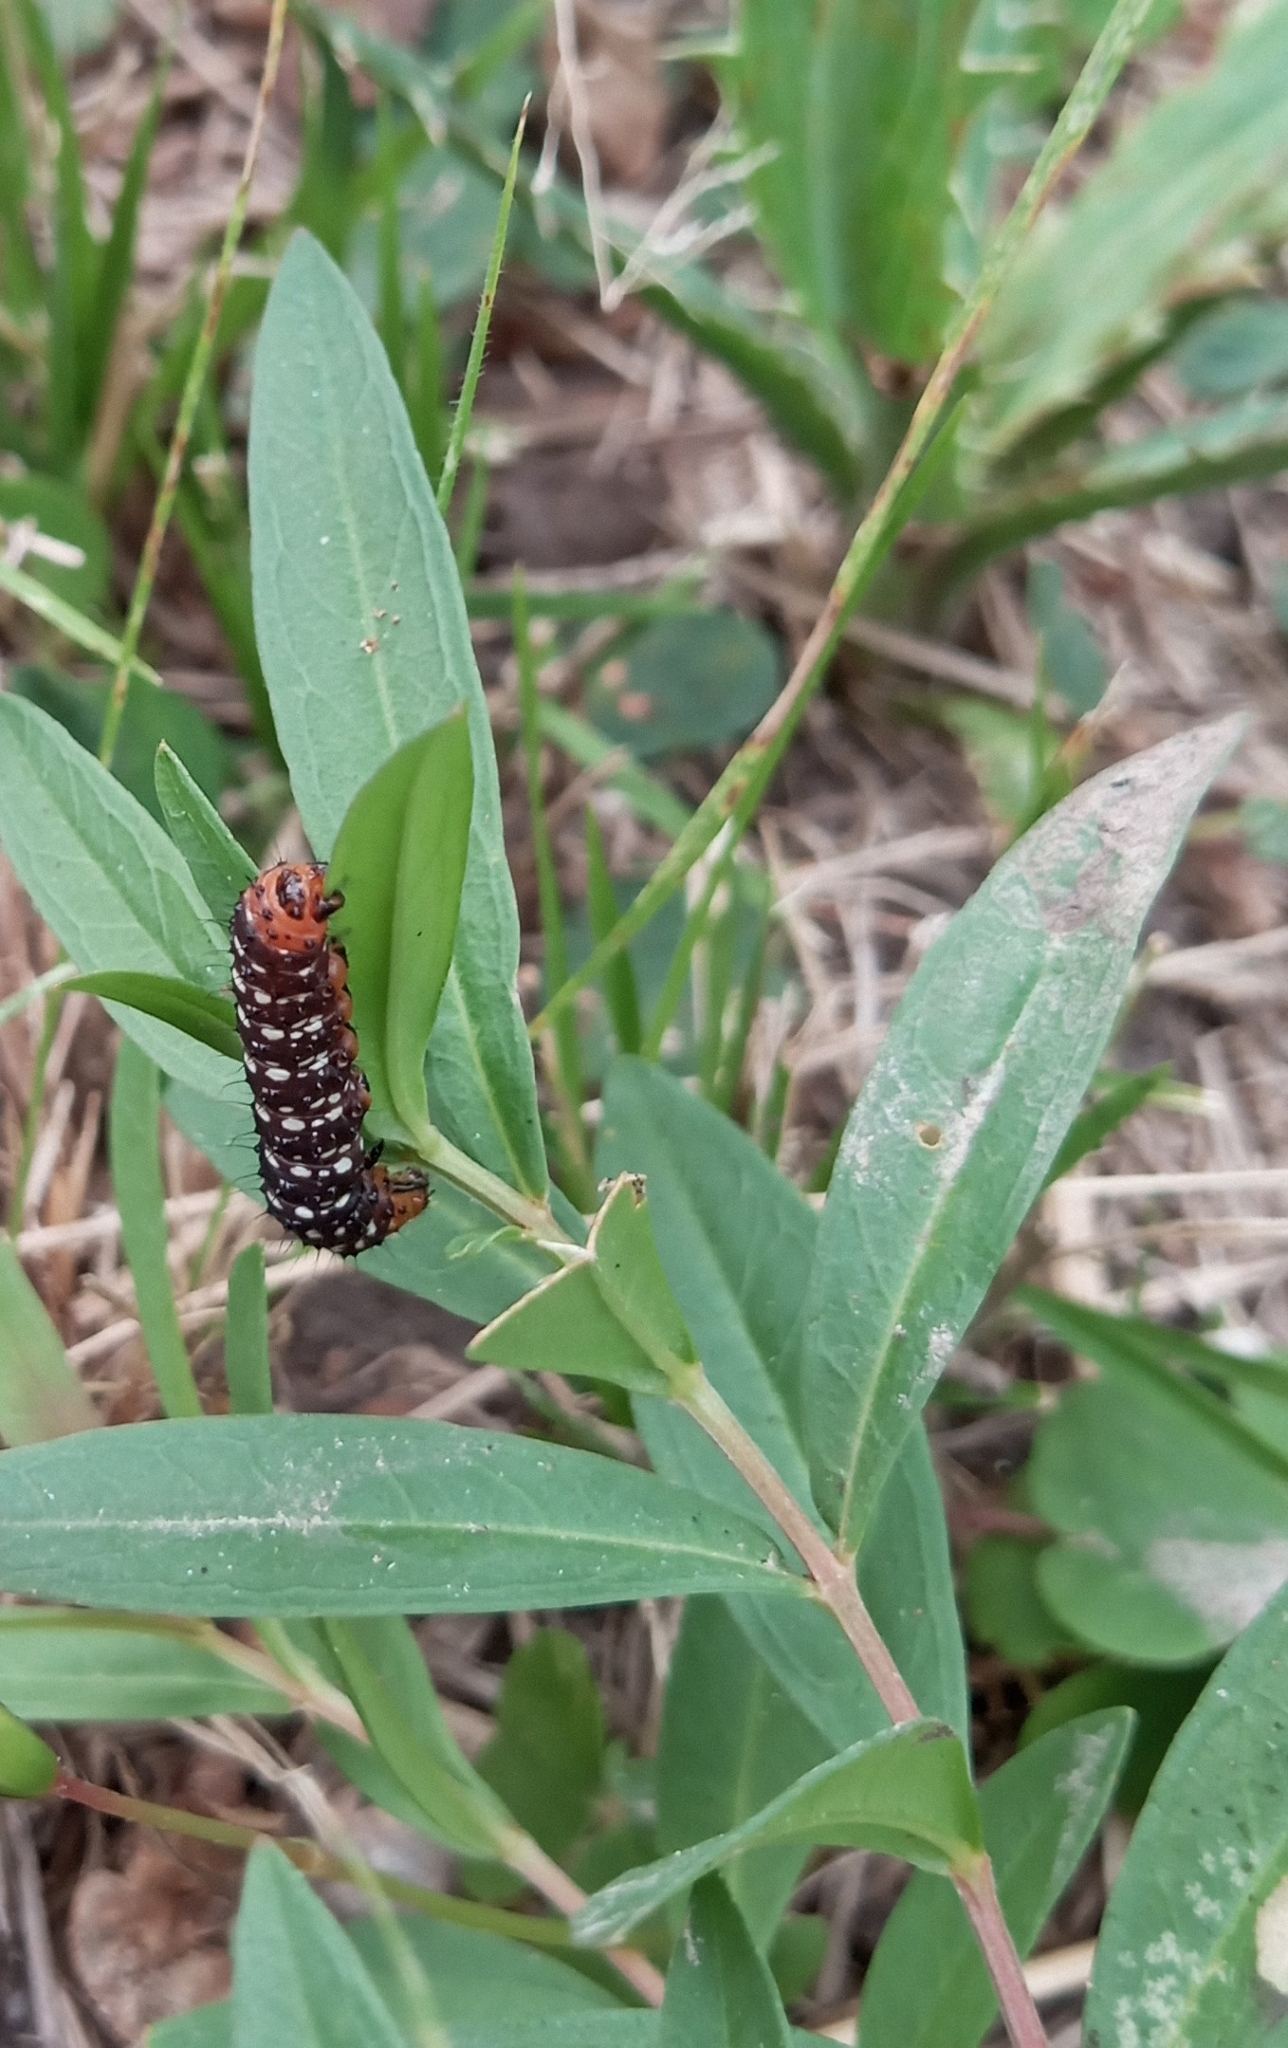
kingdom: Animalia
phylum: Arthropoda
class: Insecta
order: Lepidoptera
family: Noctuidae
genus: Xanthopastis
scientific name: Xanthopastis timais
